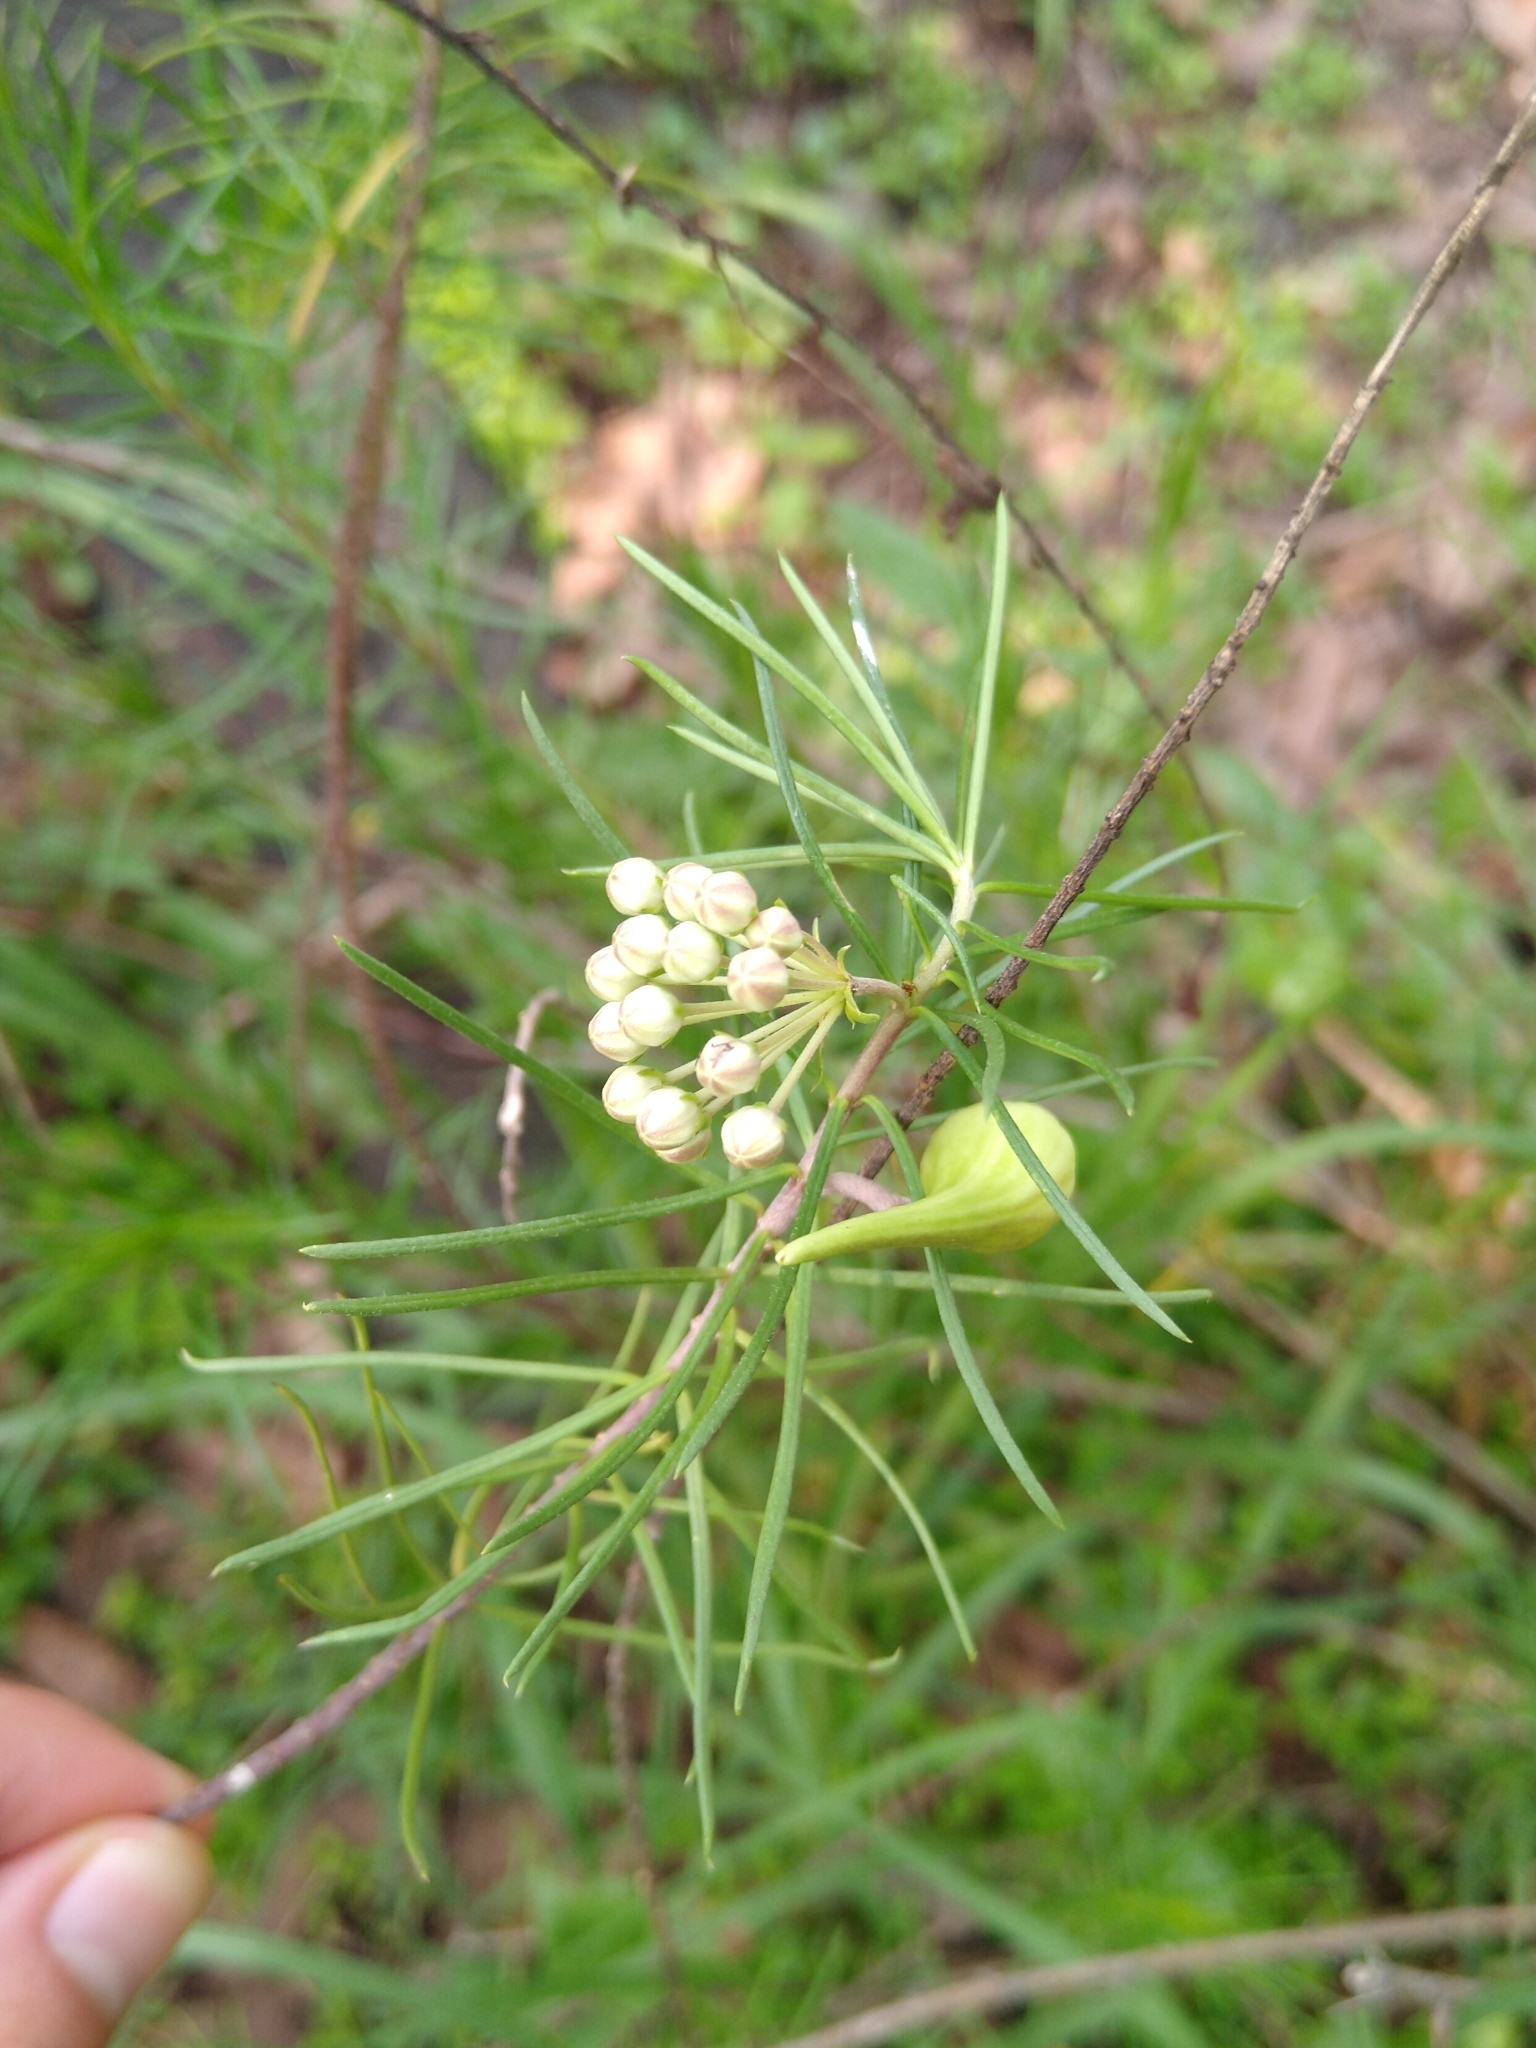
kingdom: Plantae
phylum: Tracheophyta
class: Magnoliopsida
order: Gentianales
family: Apocynaceae
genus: Asclepias
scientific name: Asclepias linaria
